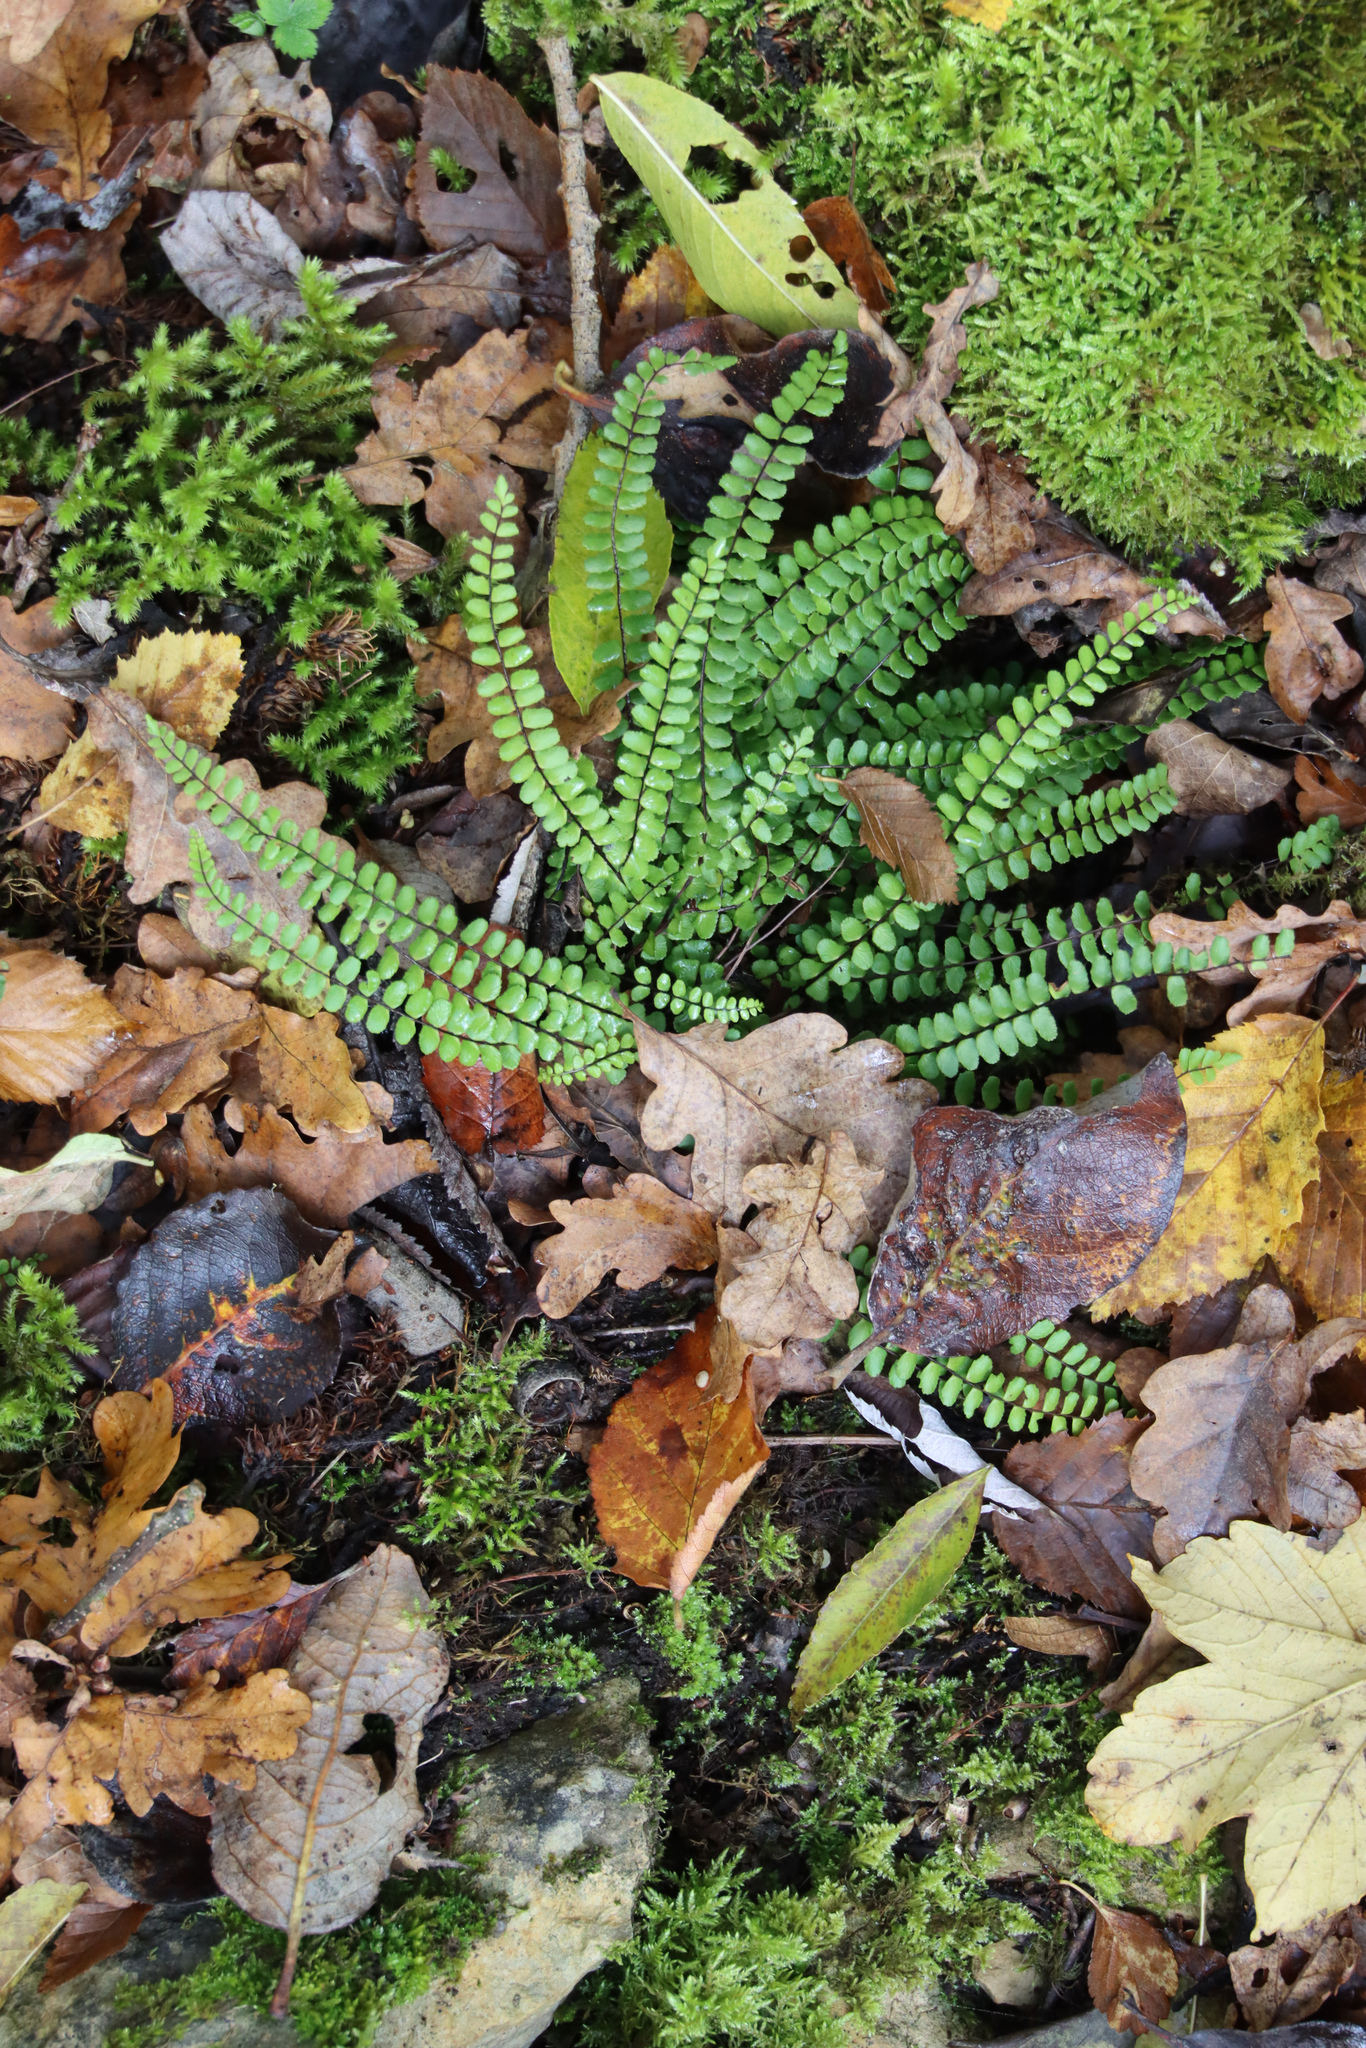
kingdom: Plantae
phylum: Tracheophyta
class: Polypodiopsida
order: Polypodiales
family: Aspleniaceae
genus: Asplenium
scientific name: Asplenium trichomanes
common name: Maidenhair spleenwort
